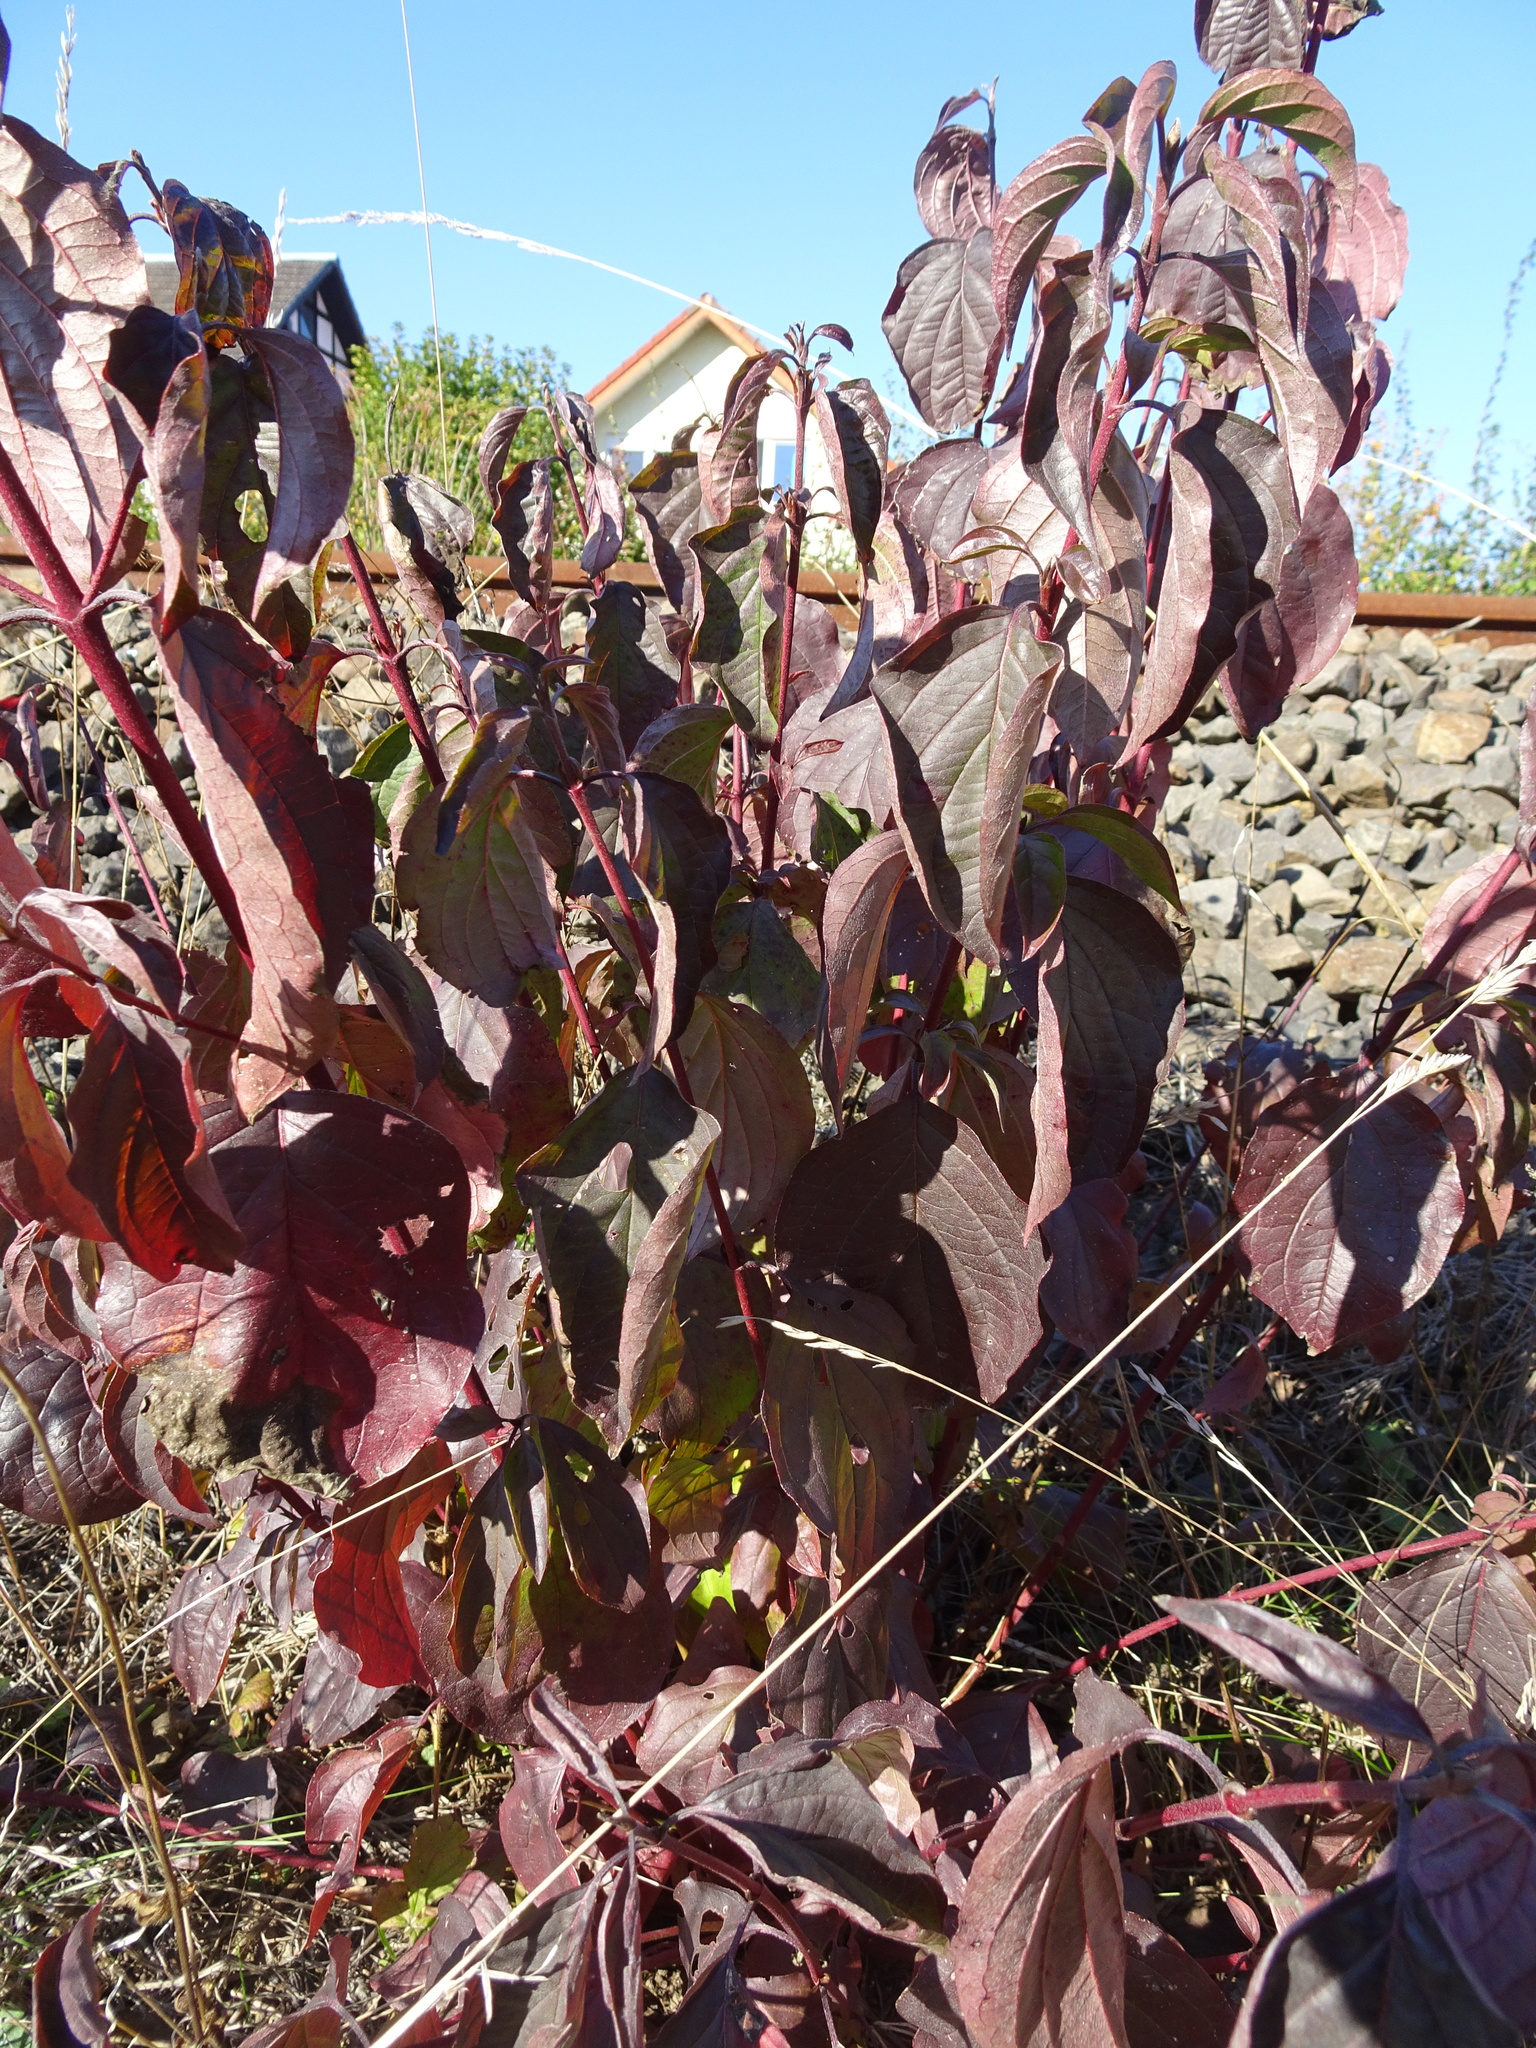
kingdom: Plantae
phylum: Tracheophyta
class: Magnoliopsida
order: Cornales
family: Cornaceae
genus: Cornus
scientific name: Cornus sanguinea
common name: Dogwood
